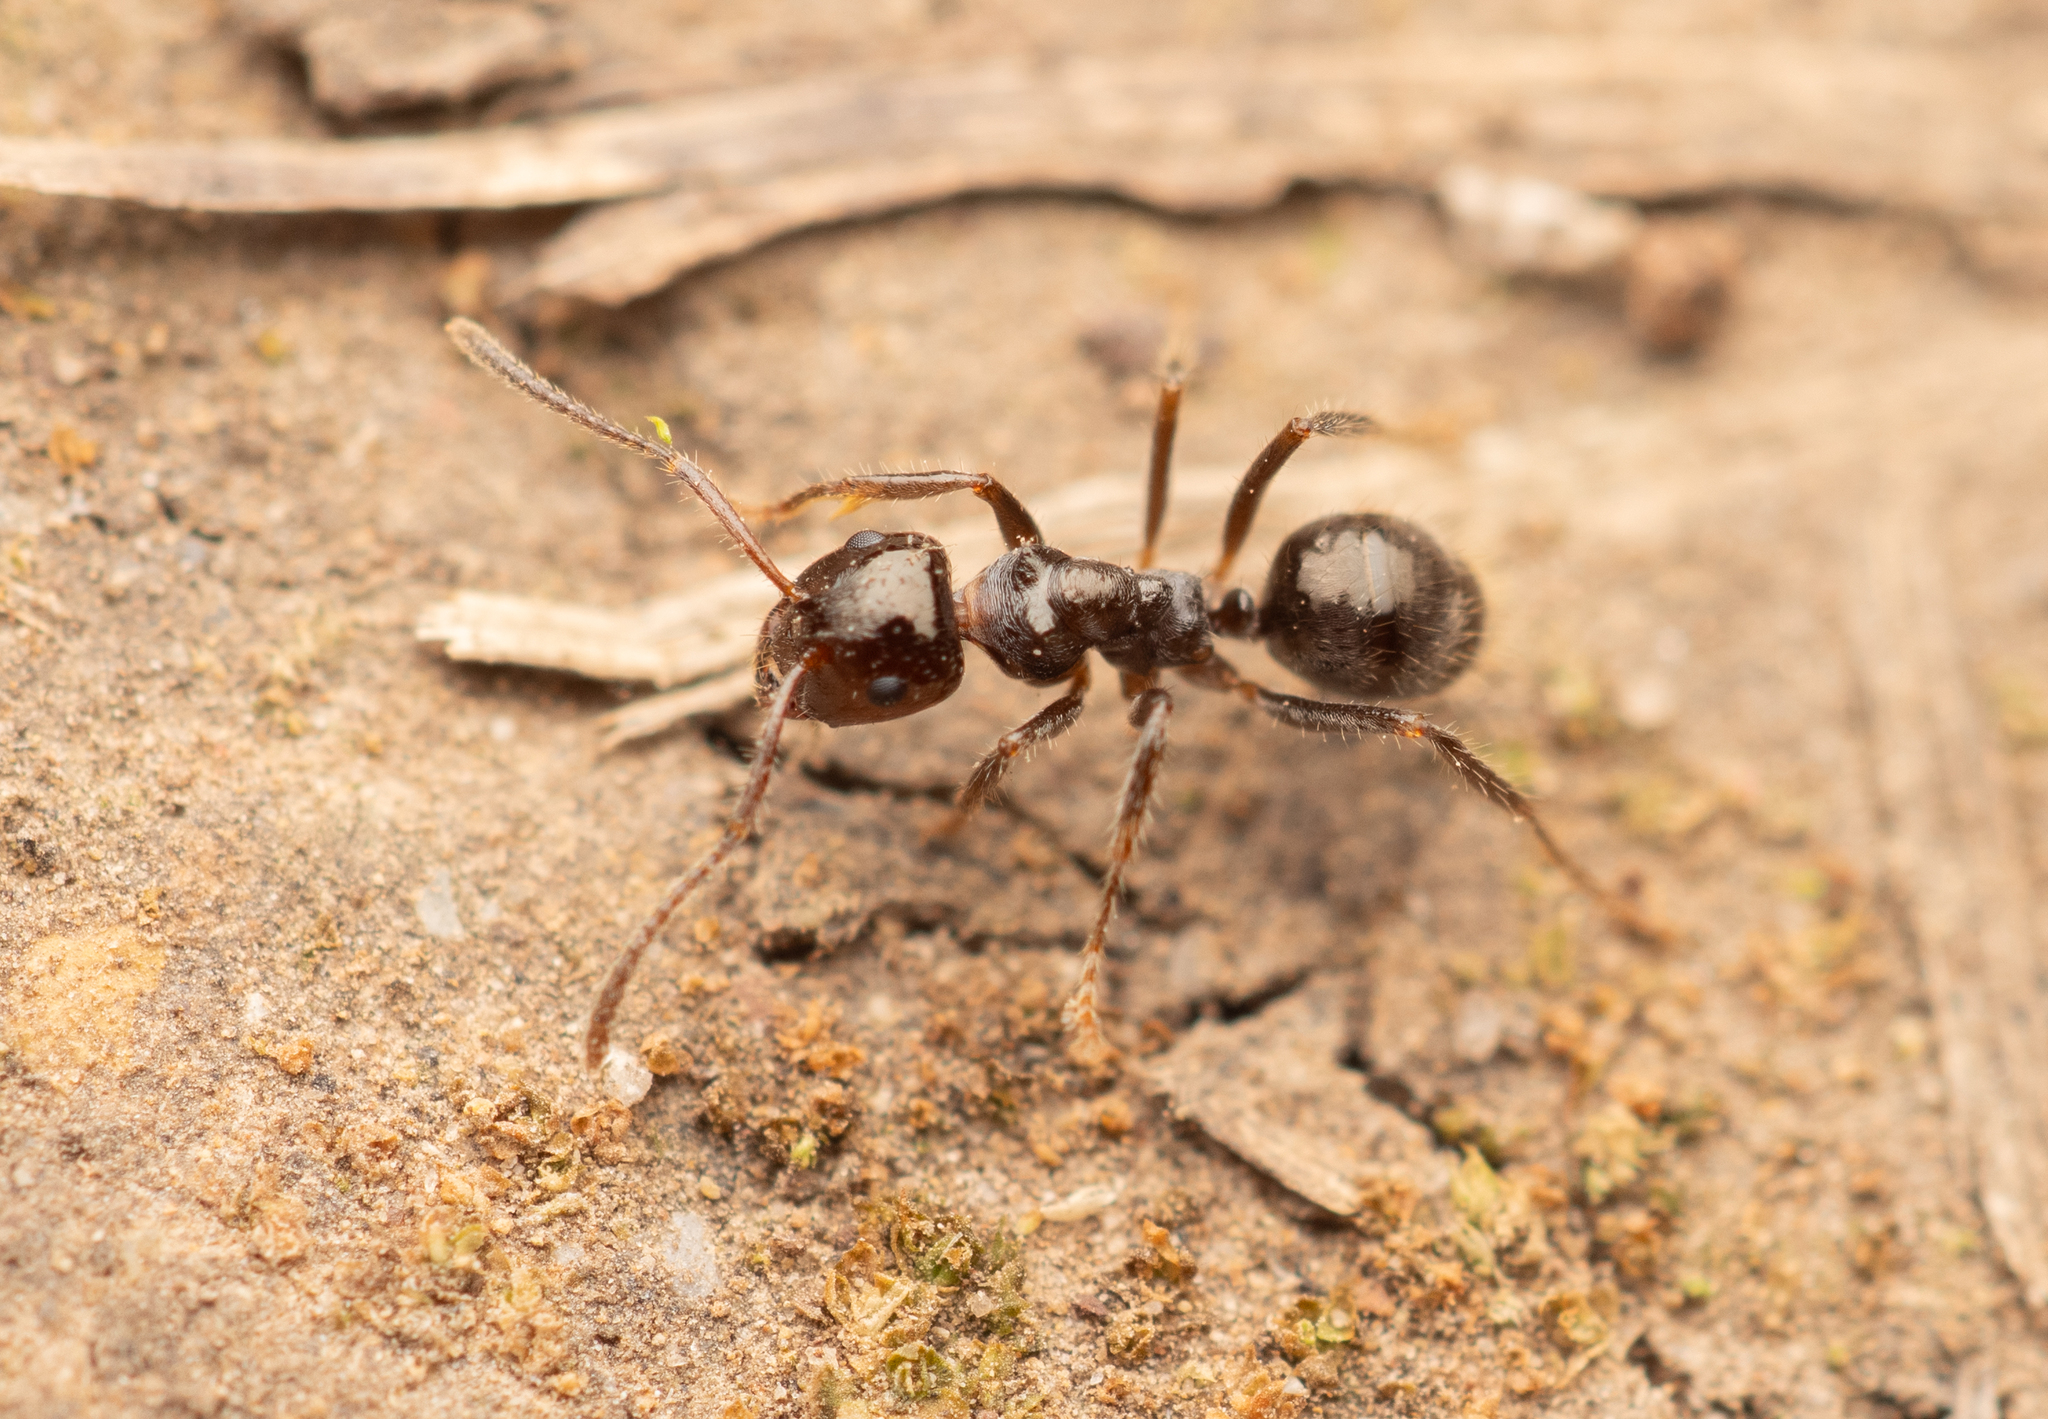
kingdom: Animalia
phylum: Arthropoda
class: Insecta
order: Hymenoptera
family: Formicidae
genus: Notoncus
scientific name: Notoncus capitatus
